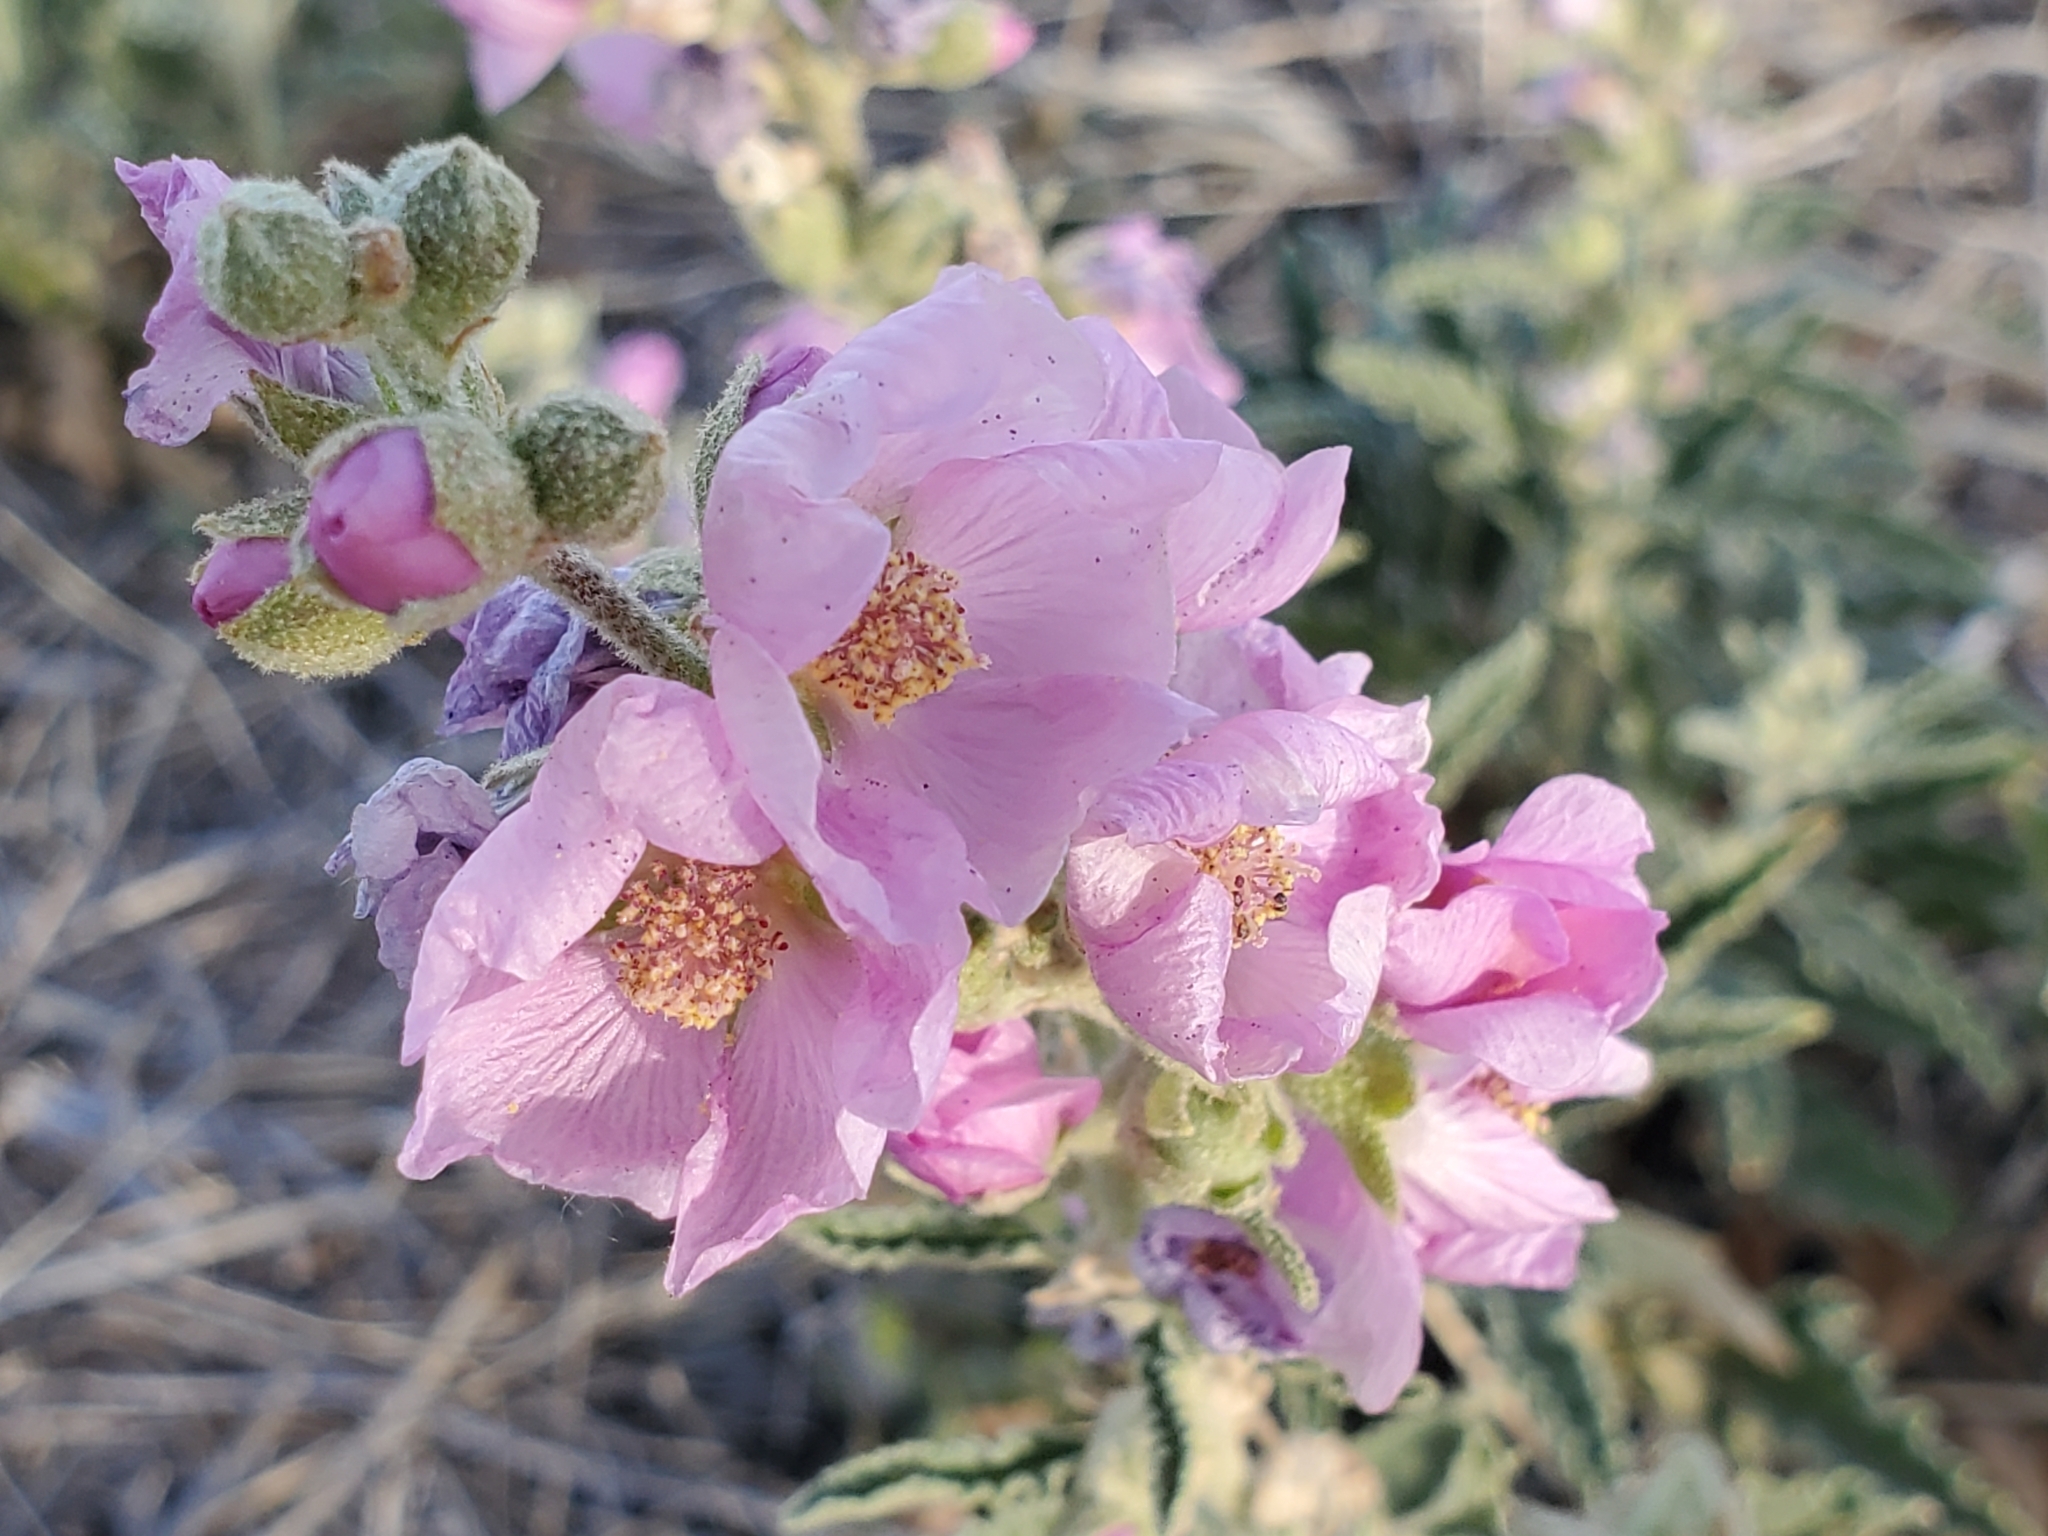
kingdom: Plantae
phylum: Tracheophyta
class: Magnoliopsida
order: Malvales
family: Malvaceae
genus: Sphaeralcea
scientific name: Sphaeralcea angustifolia
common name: Copper globe-mallow
